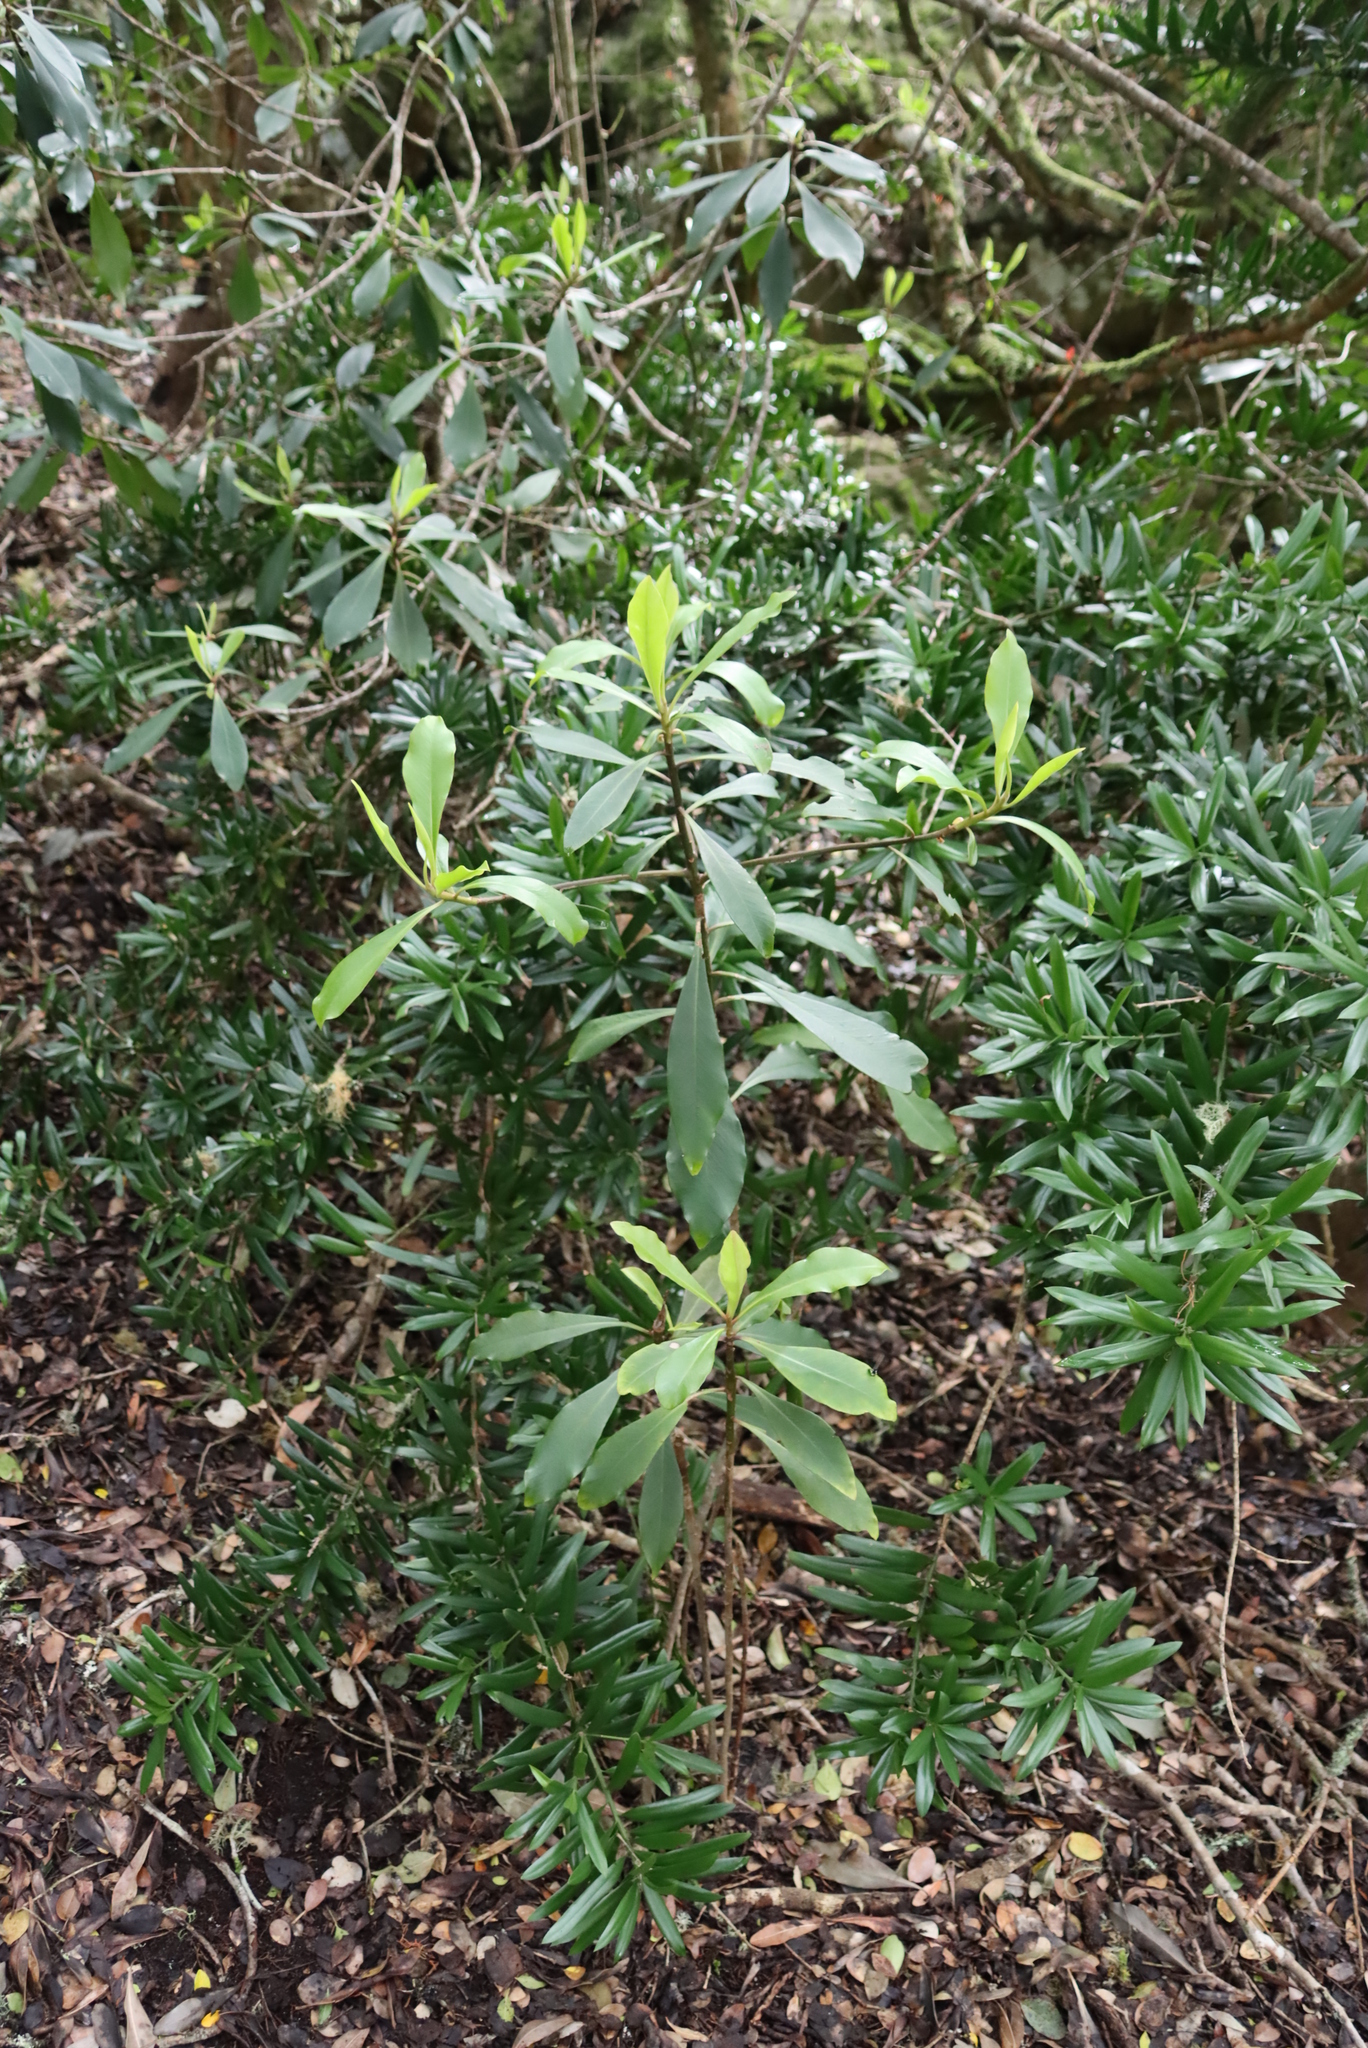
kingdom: Plantae
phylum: Tracheophyta
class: Magnoliopsida
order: Ericales
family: Primulaceae
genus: Myrsine
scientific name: Myrsine melanophloeos
